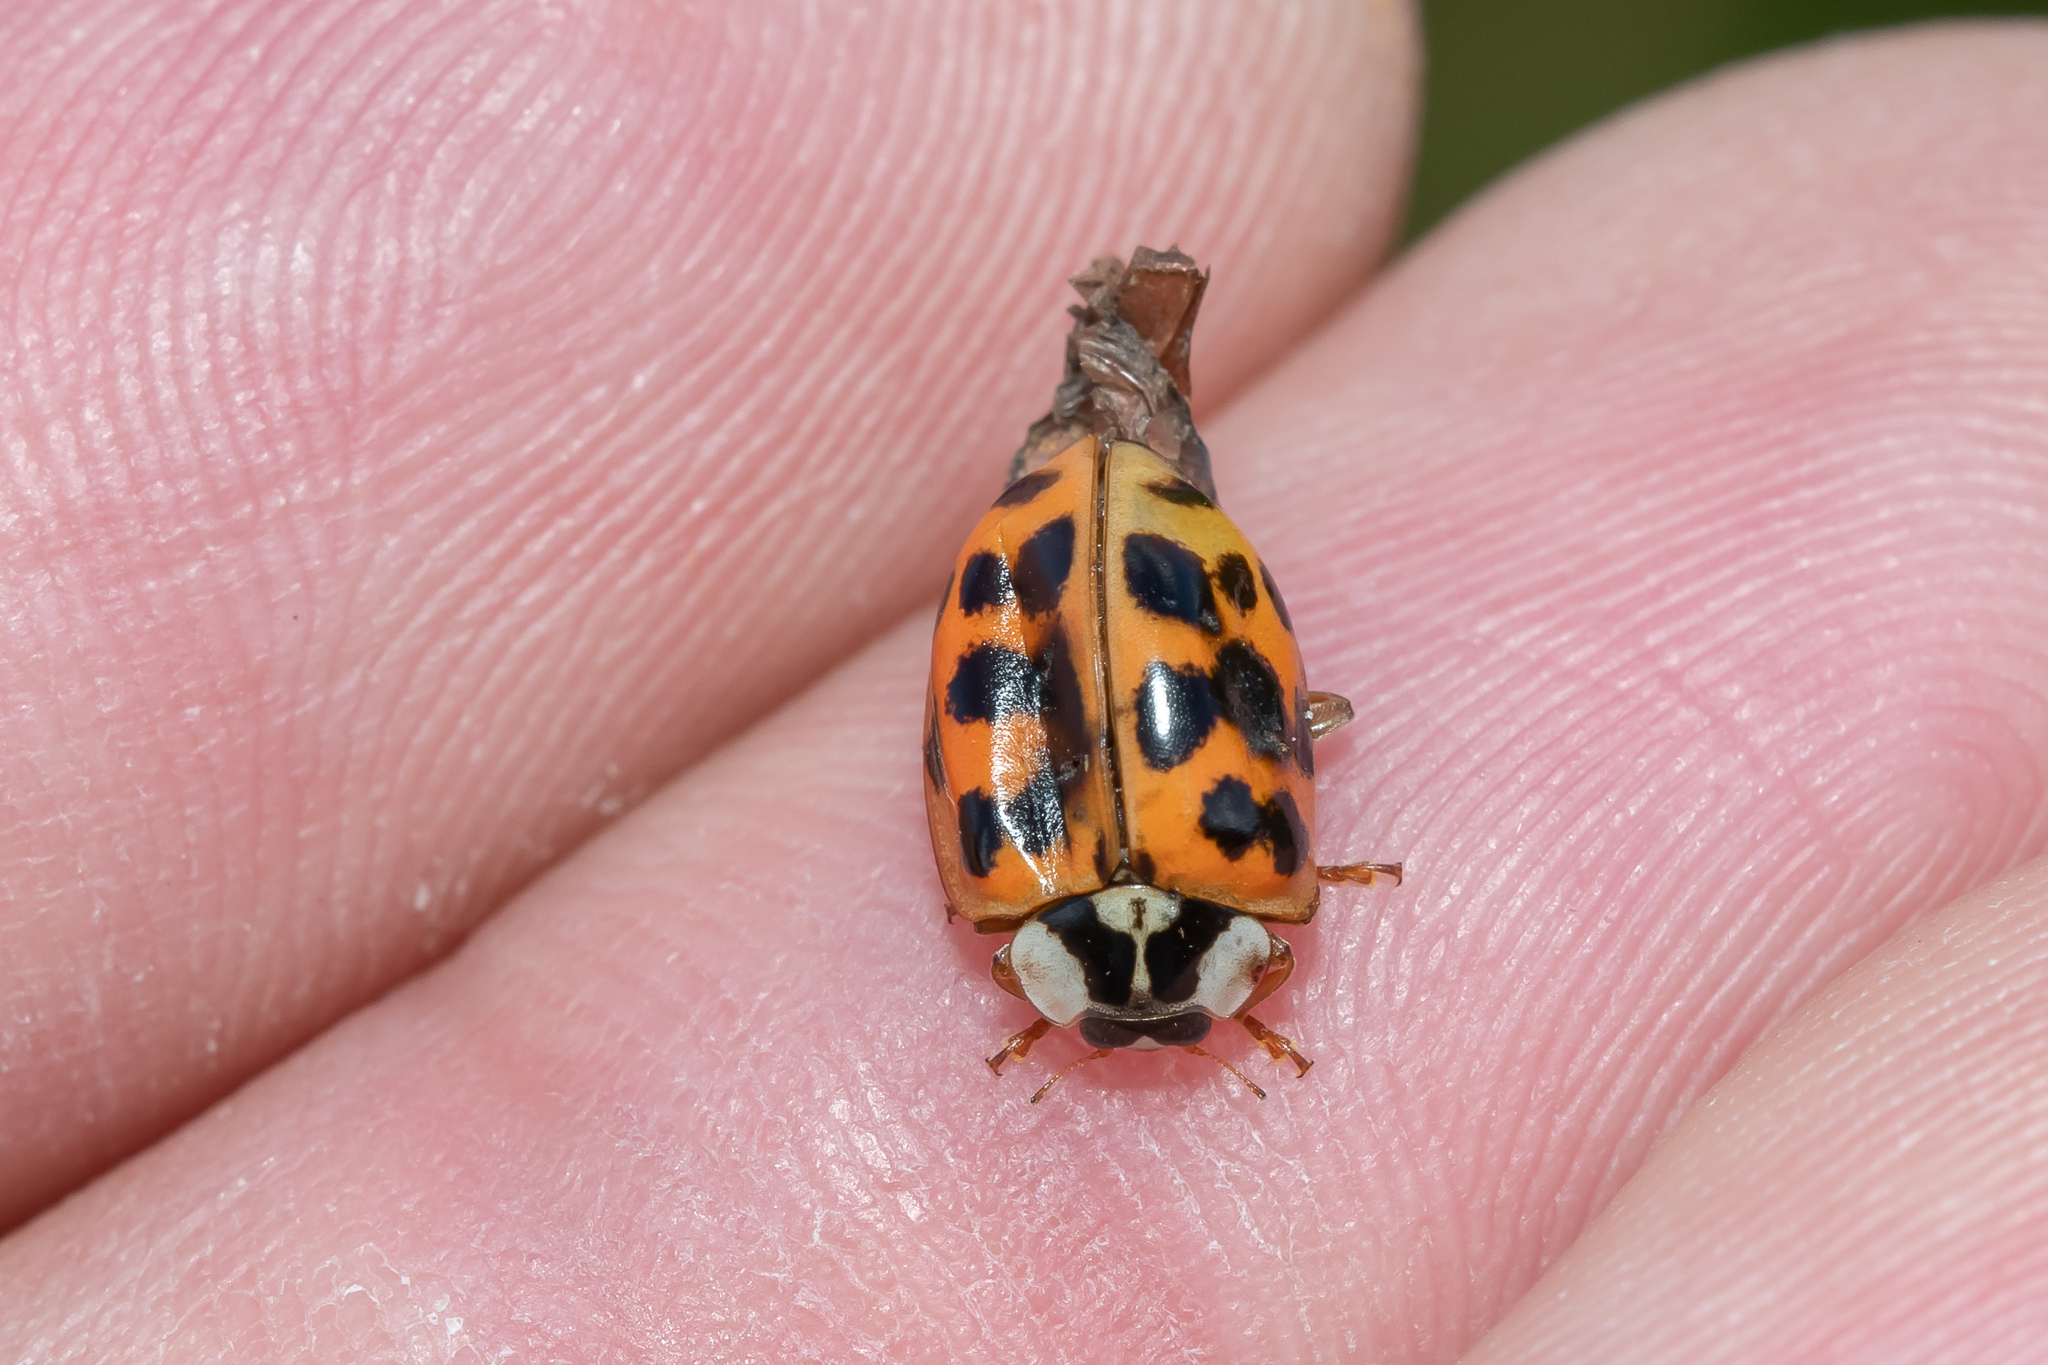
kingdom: Animalia
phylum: Arthropoda
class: Insecta
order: Coleoptera
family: Coccinellidae
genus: Harmonia
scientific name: Harmonia axyridis
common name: Harlequin ladybird
